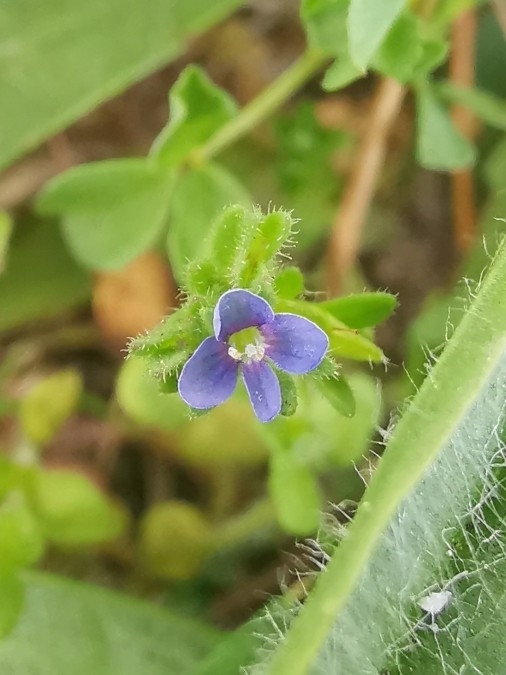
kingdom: Plantae
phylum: Tracheophyta
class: Magnoliopsida
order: Lamiales
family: Plantaginaceae
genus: Veronica
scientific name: Veronica arvensis
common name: Corn speedwell
